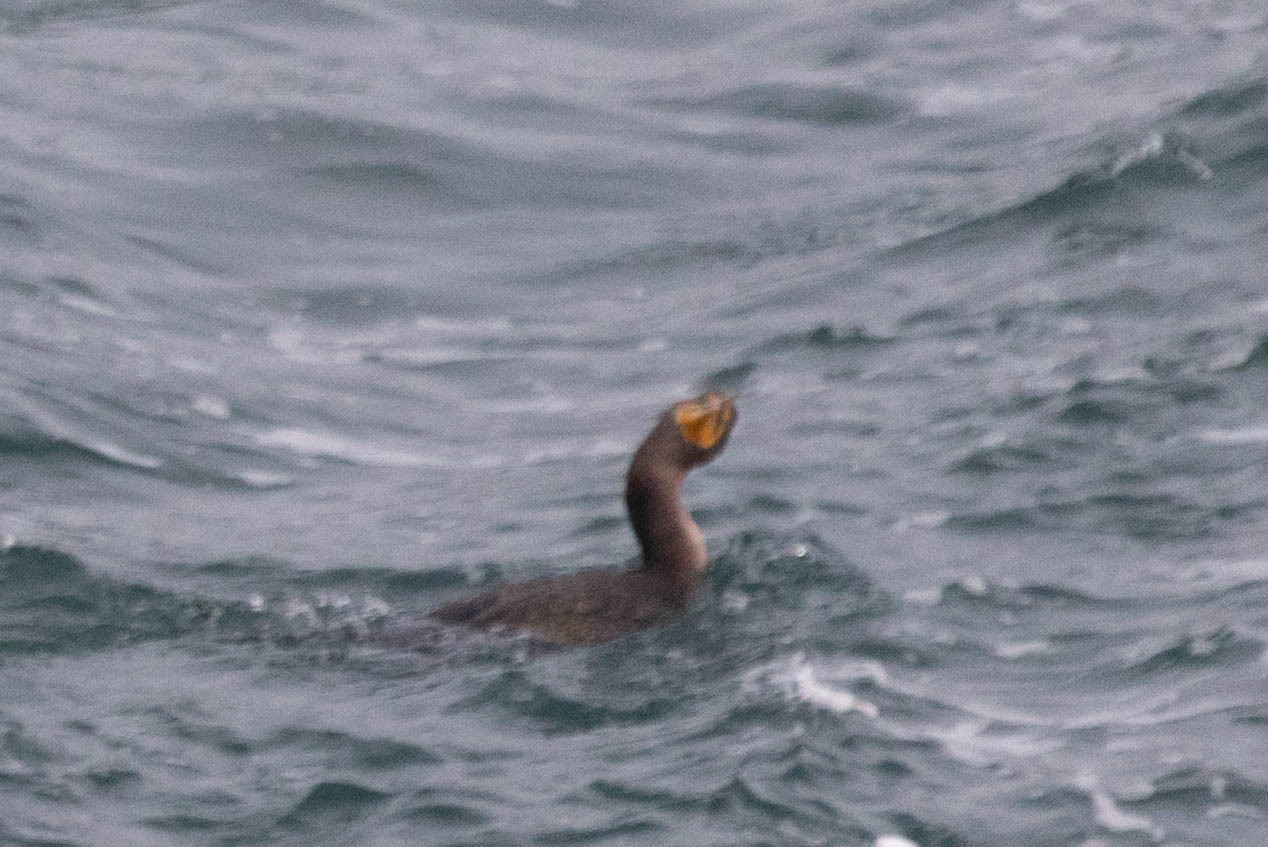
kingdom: Animalia
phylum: Chordata
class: Aves
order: Suliformes
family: Phalacrocoracidae
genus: Phalacrocorax
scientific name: Phalacrocorax auritus
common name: Double-crested cormorant
